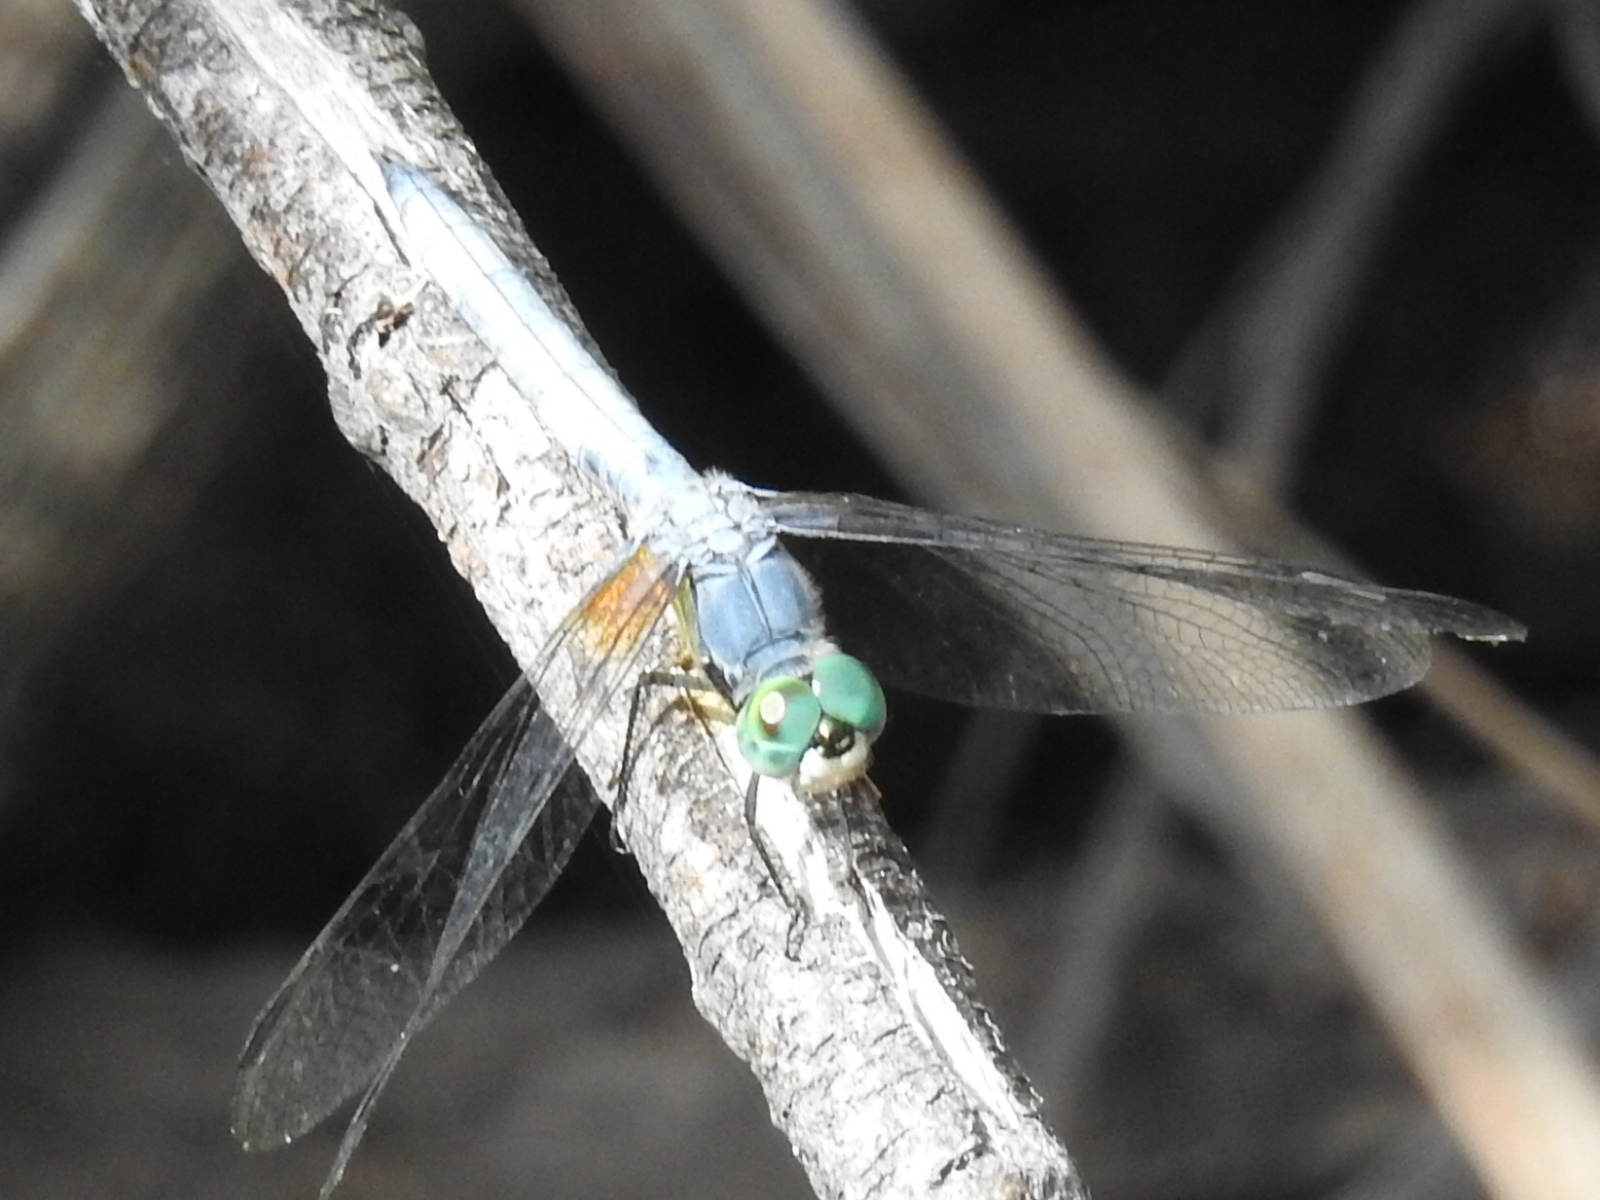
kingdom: Animalia
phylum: Arthropoda
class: Insecta
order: Odonata
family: Libellulidae
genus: Pachydiplax
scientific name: Pachydiplax longipennis
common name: Blue dasher
